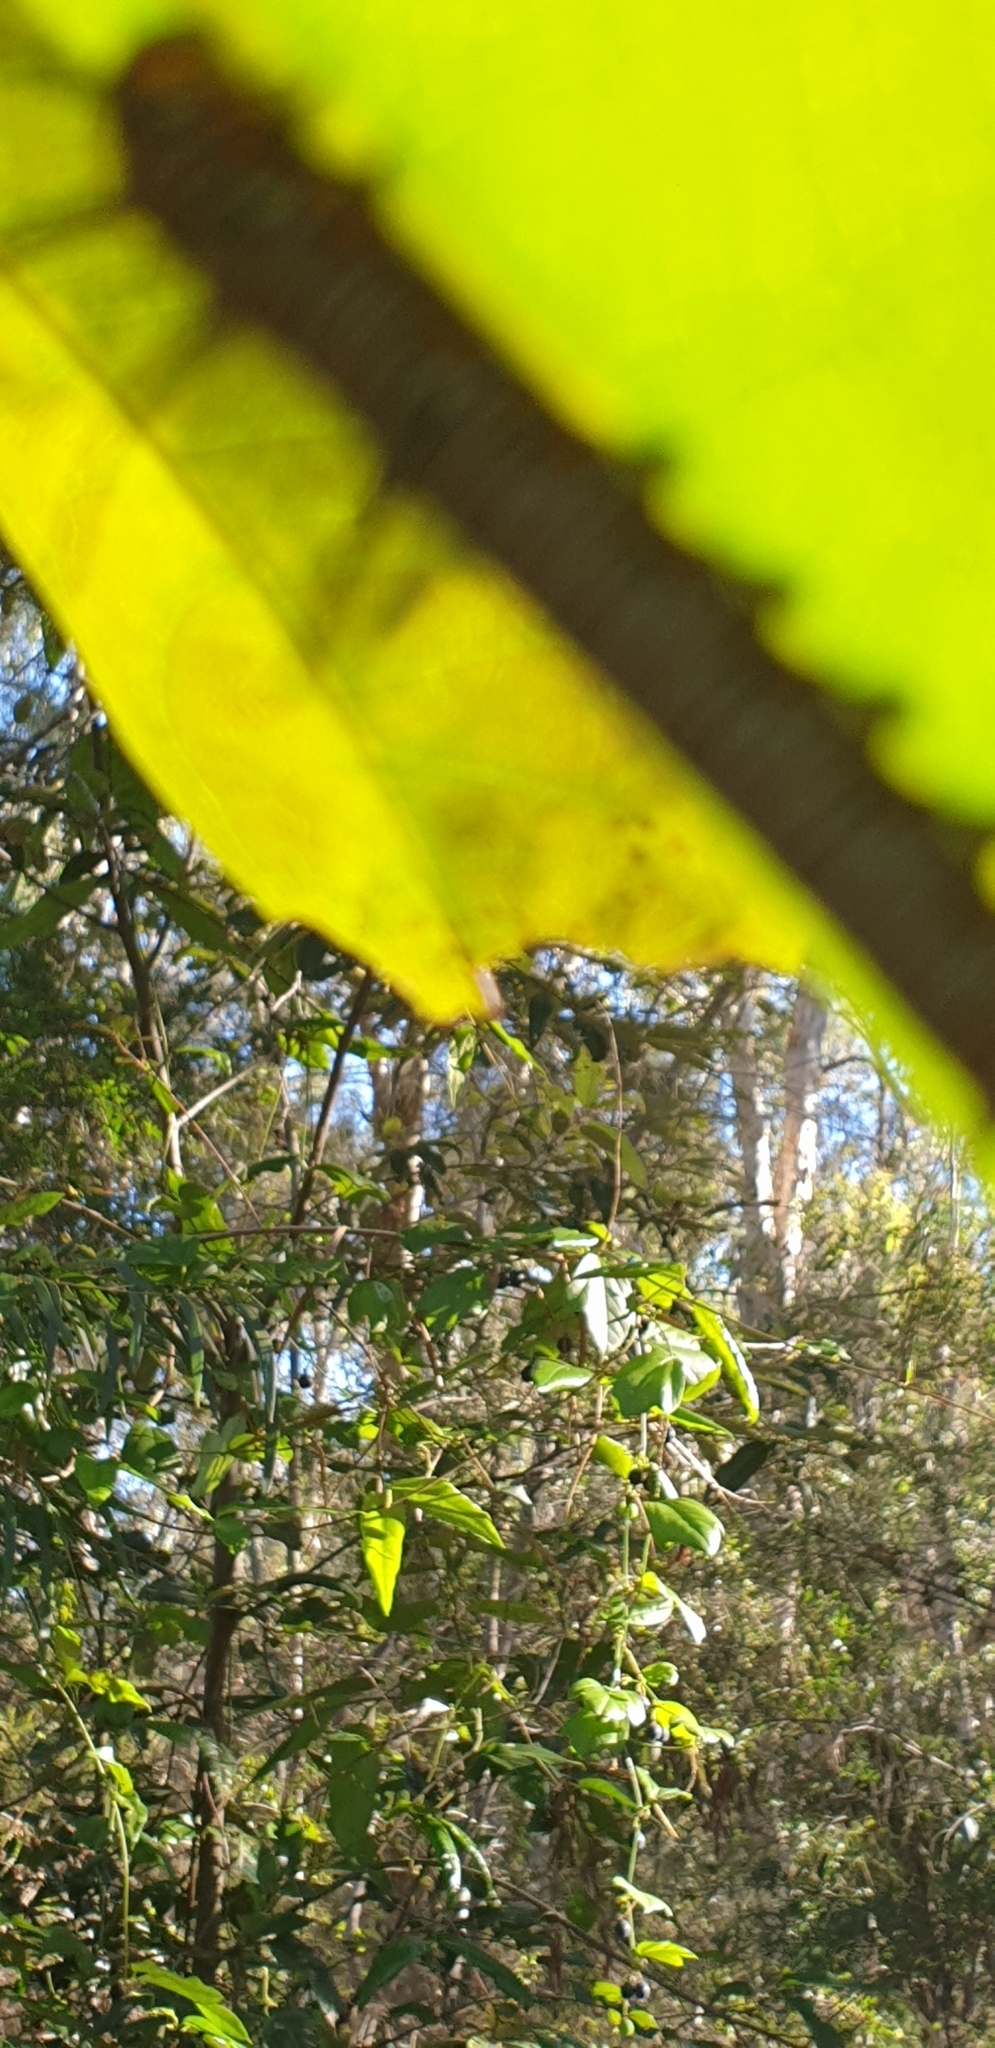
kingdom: Animalia
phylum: Arthropoda
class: Insecta
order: Lepidoptera
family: Nymphalidae
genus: Euploea
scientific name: Euploea core
